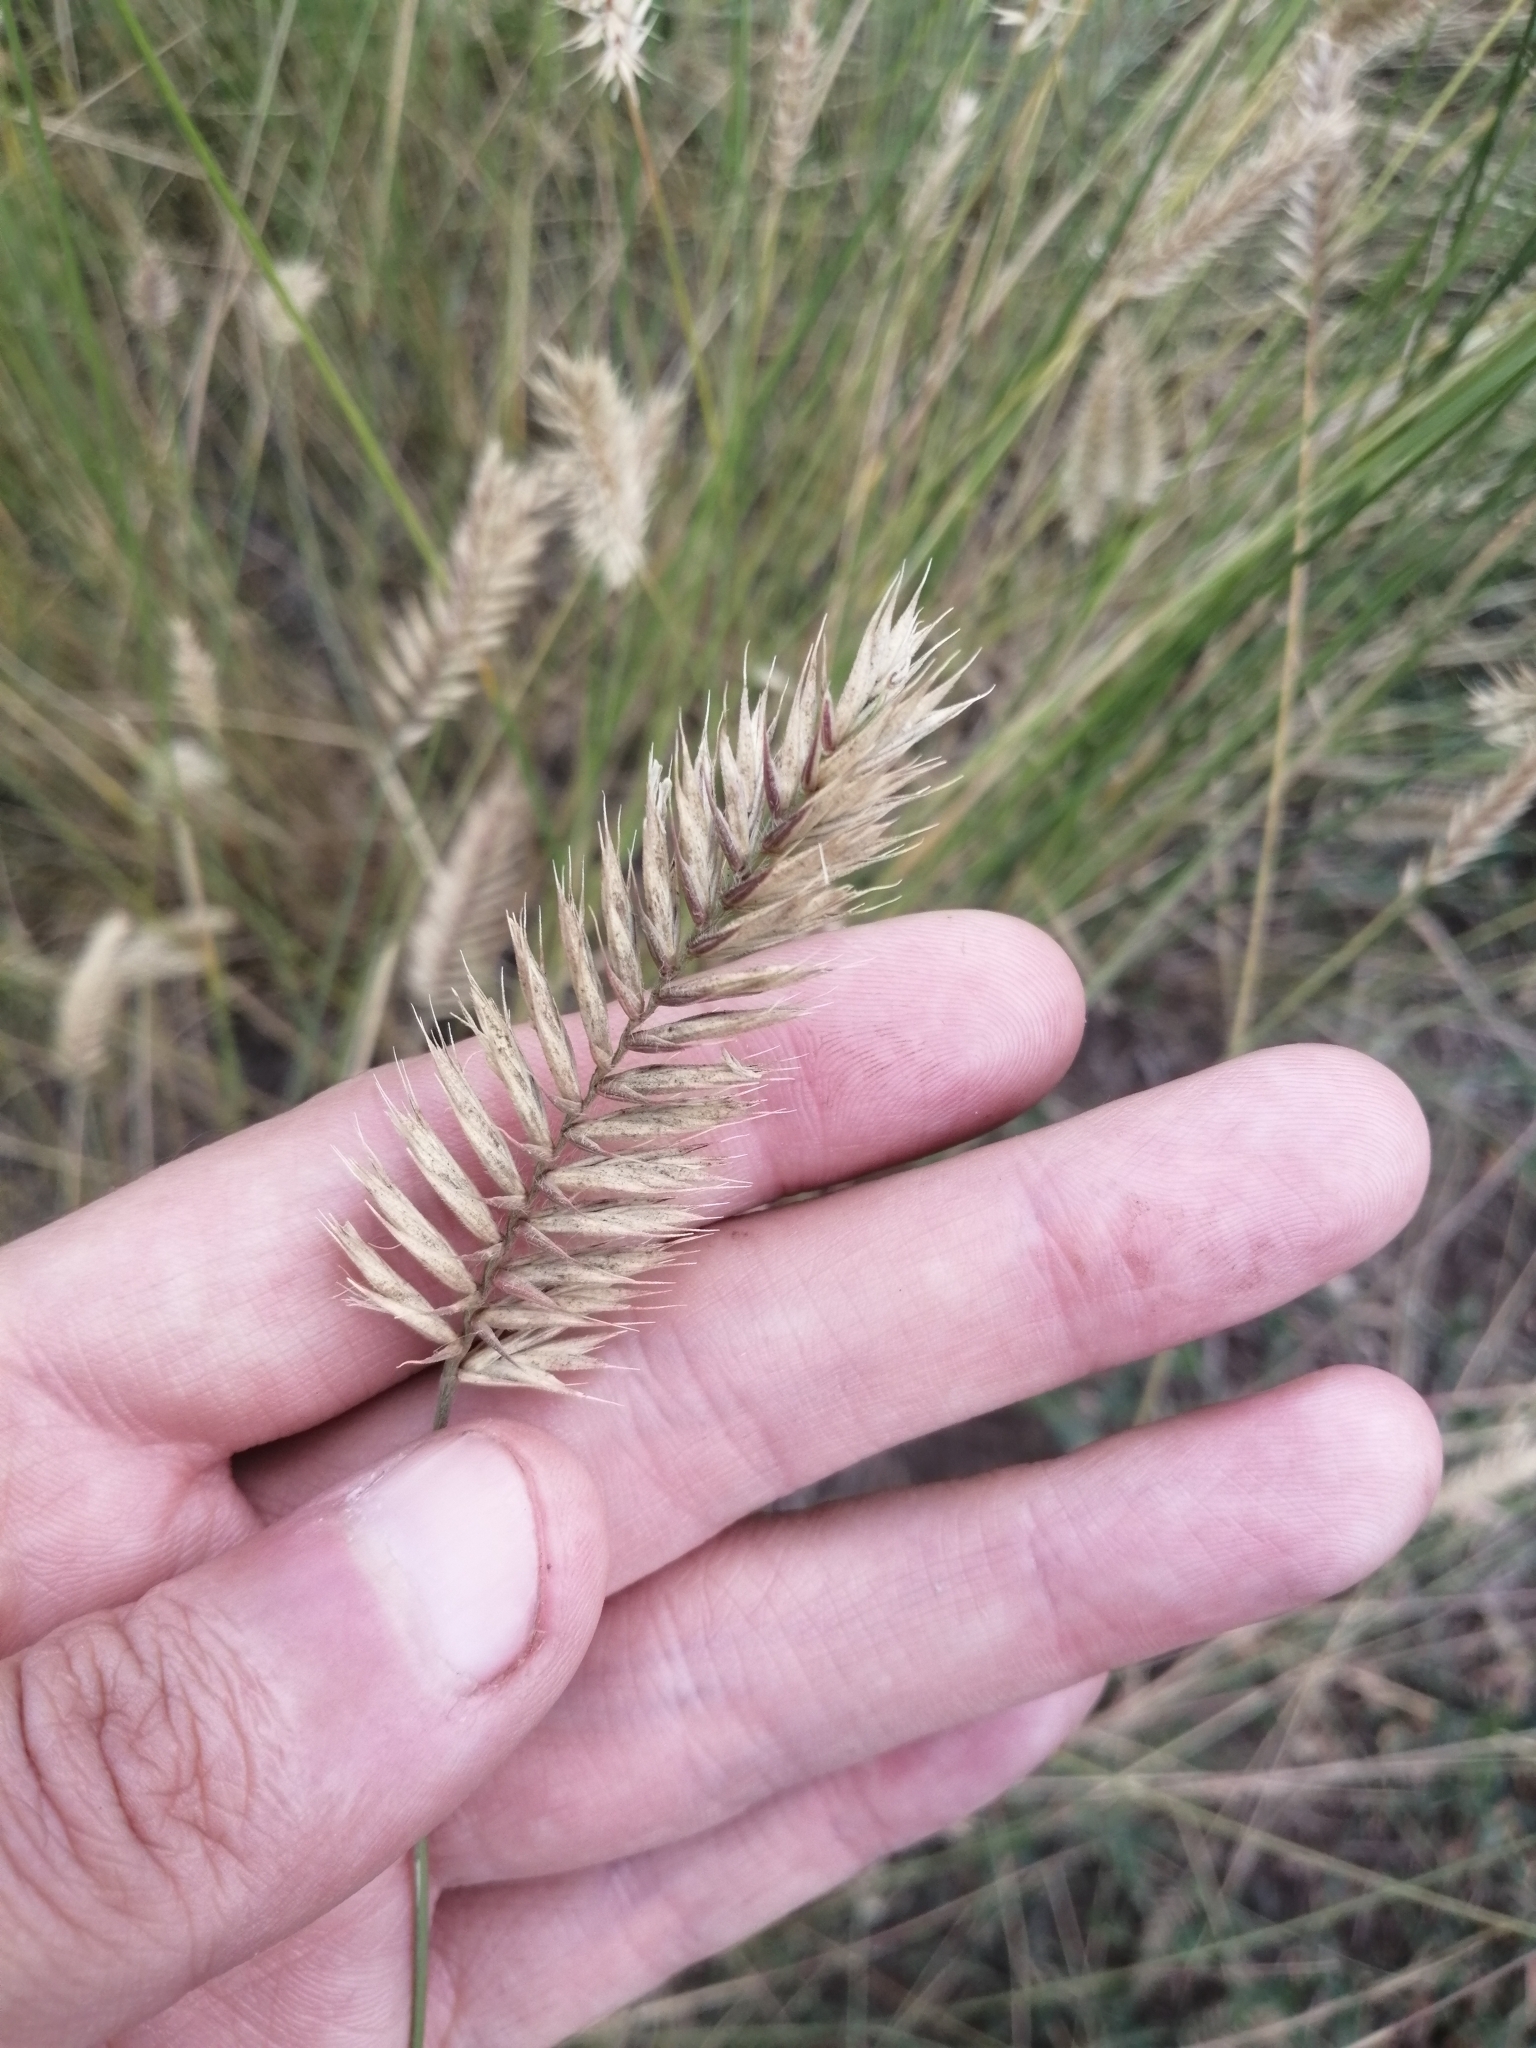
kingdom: Plantae
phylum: Tracheophyta
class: Liliopsida
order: Poales
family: Poaceae
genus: Agropyron
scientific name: Agropyron cristatum
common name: Crested wheatgrass
